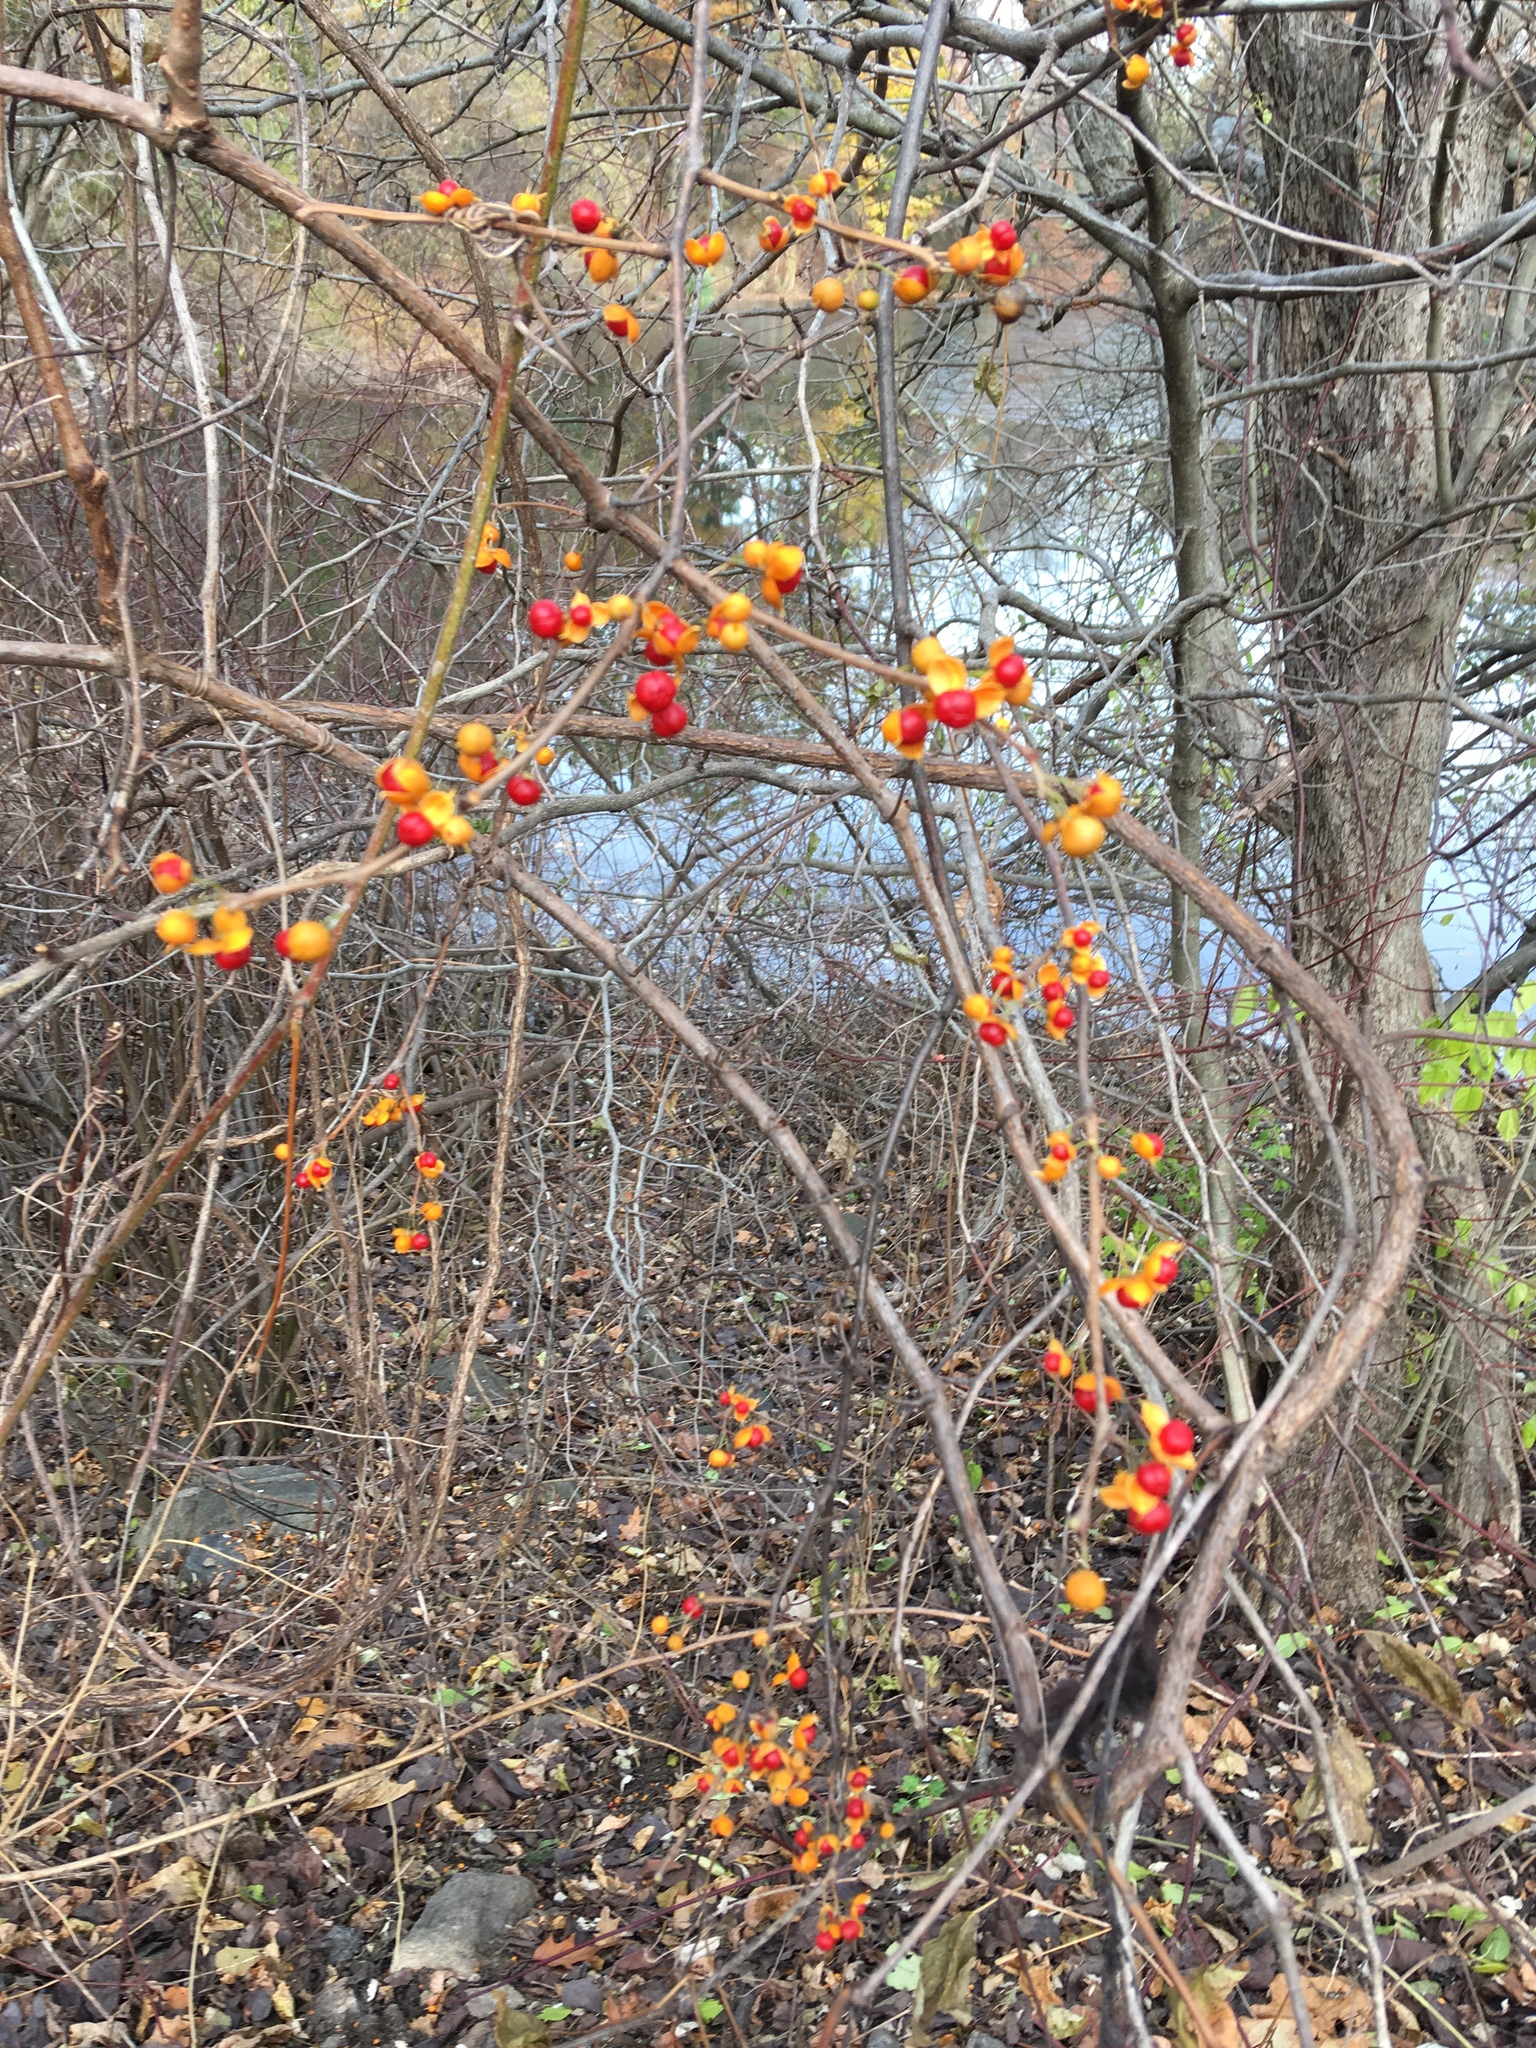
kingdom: Plantae
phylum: Tracheophyta
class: Magnoliopsida
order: Celastrales
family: Celastraceae
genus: Celastrus
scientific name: Celastrus orbiculatus
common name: Oriental bittersweet
